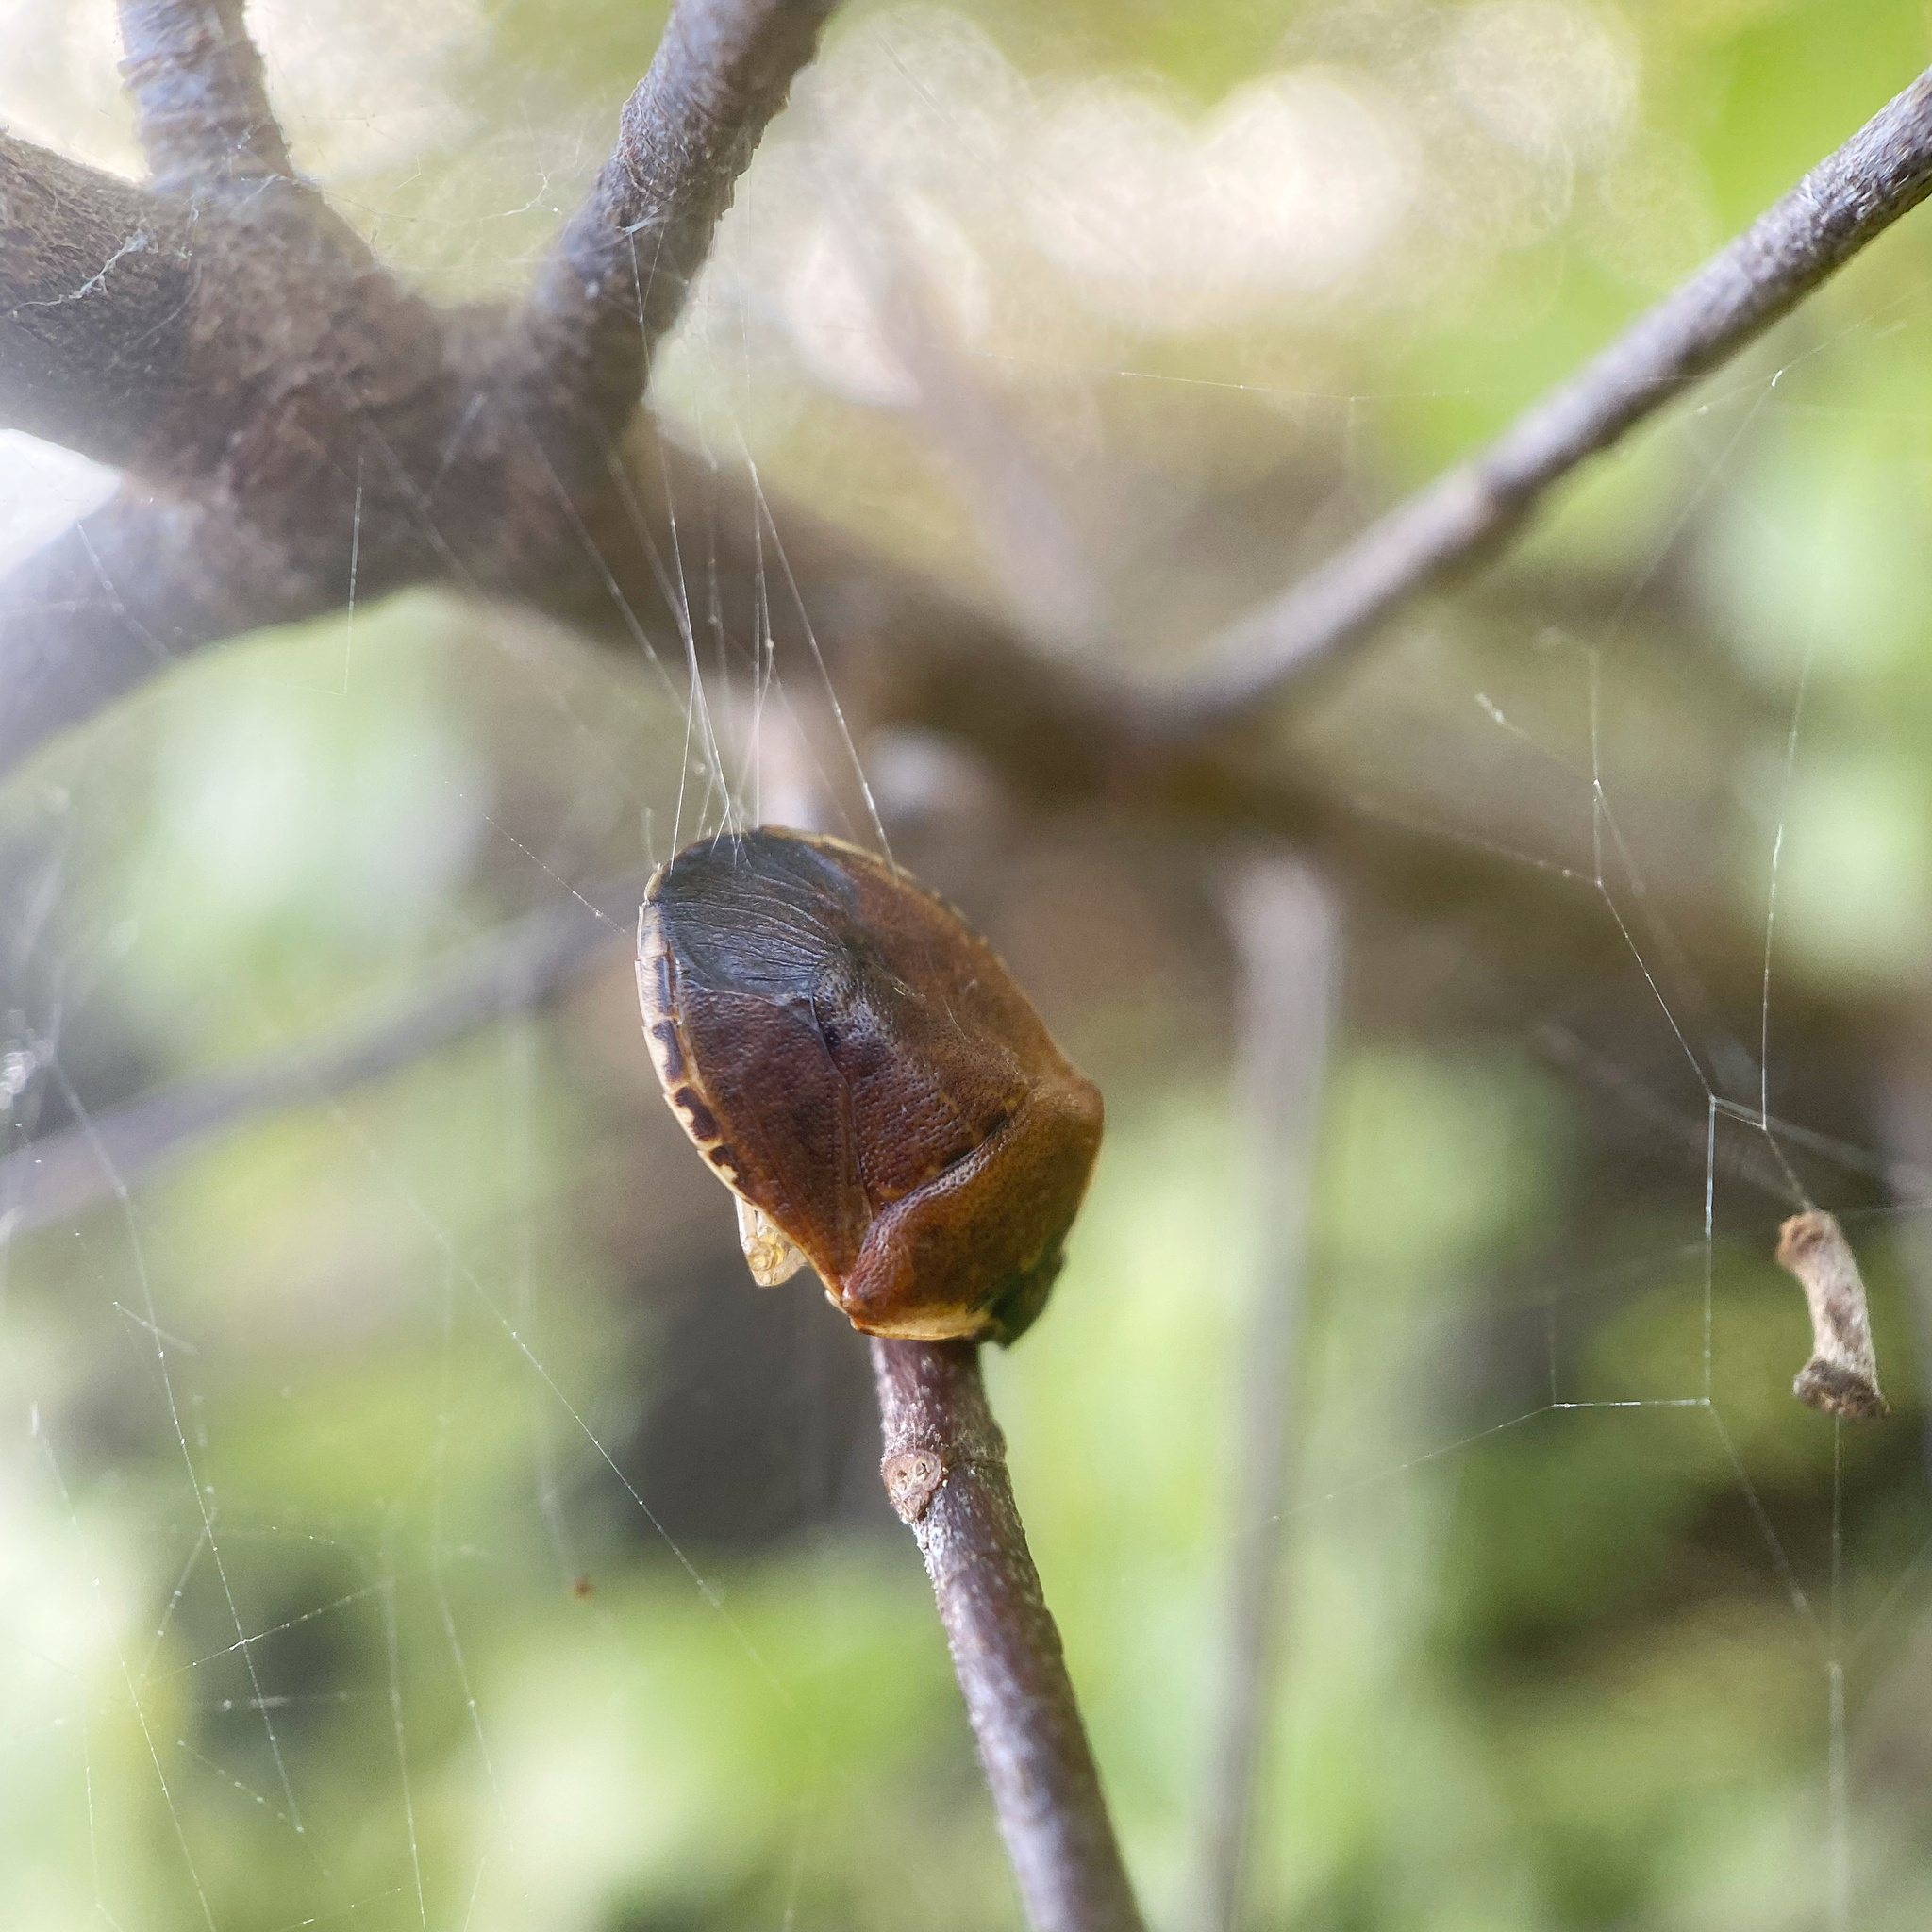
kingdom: Animalia
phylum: Arthropoda
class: Insecta
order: Hemiptera
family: Pentatomidae
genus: Monteithiella
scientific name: Monteithiella
